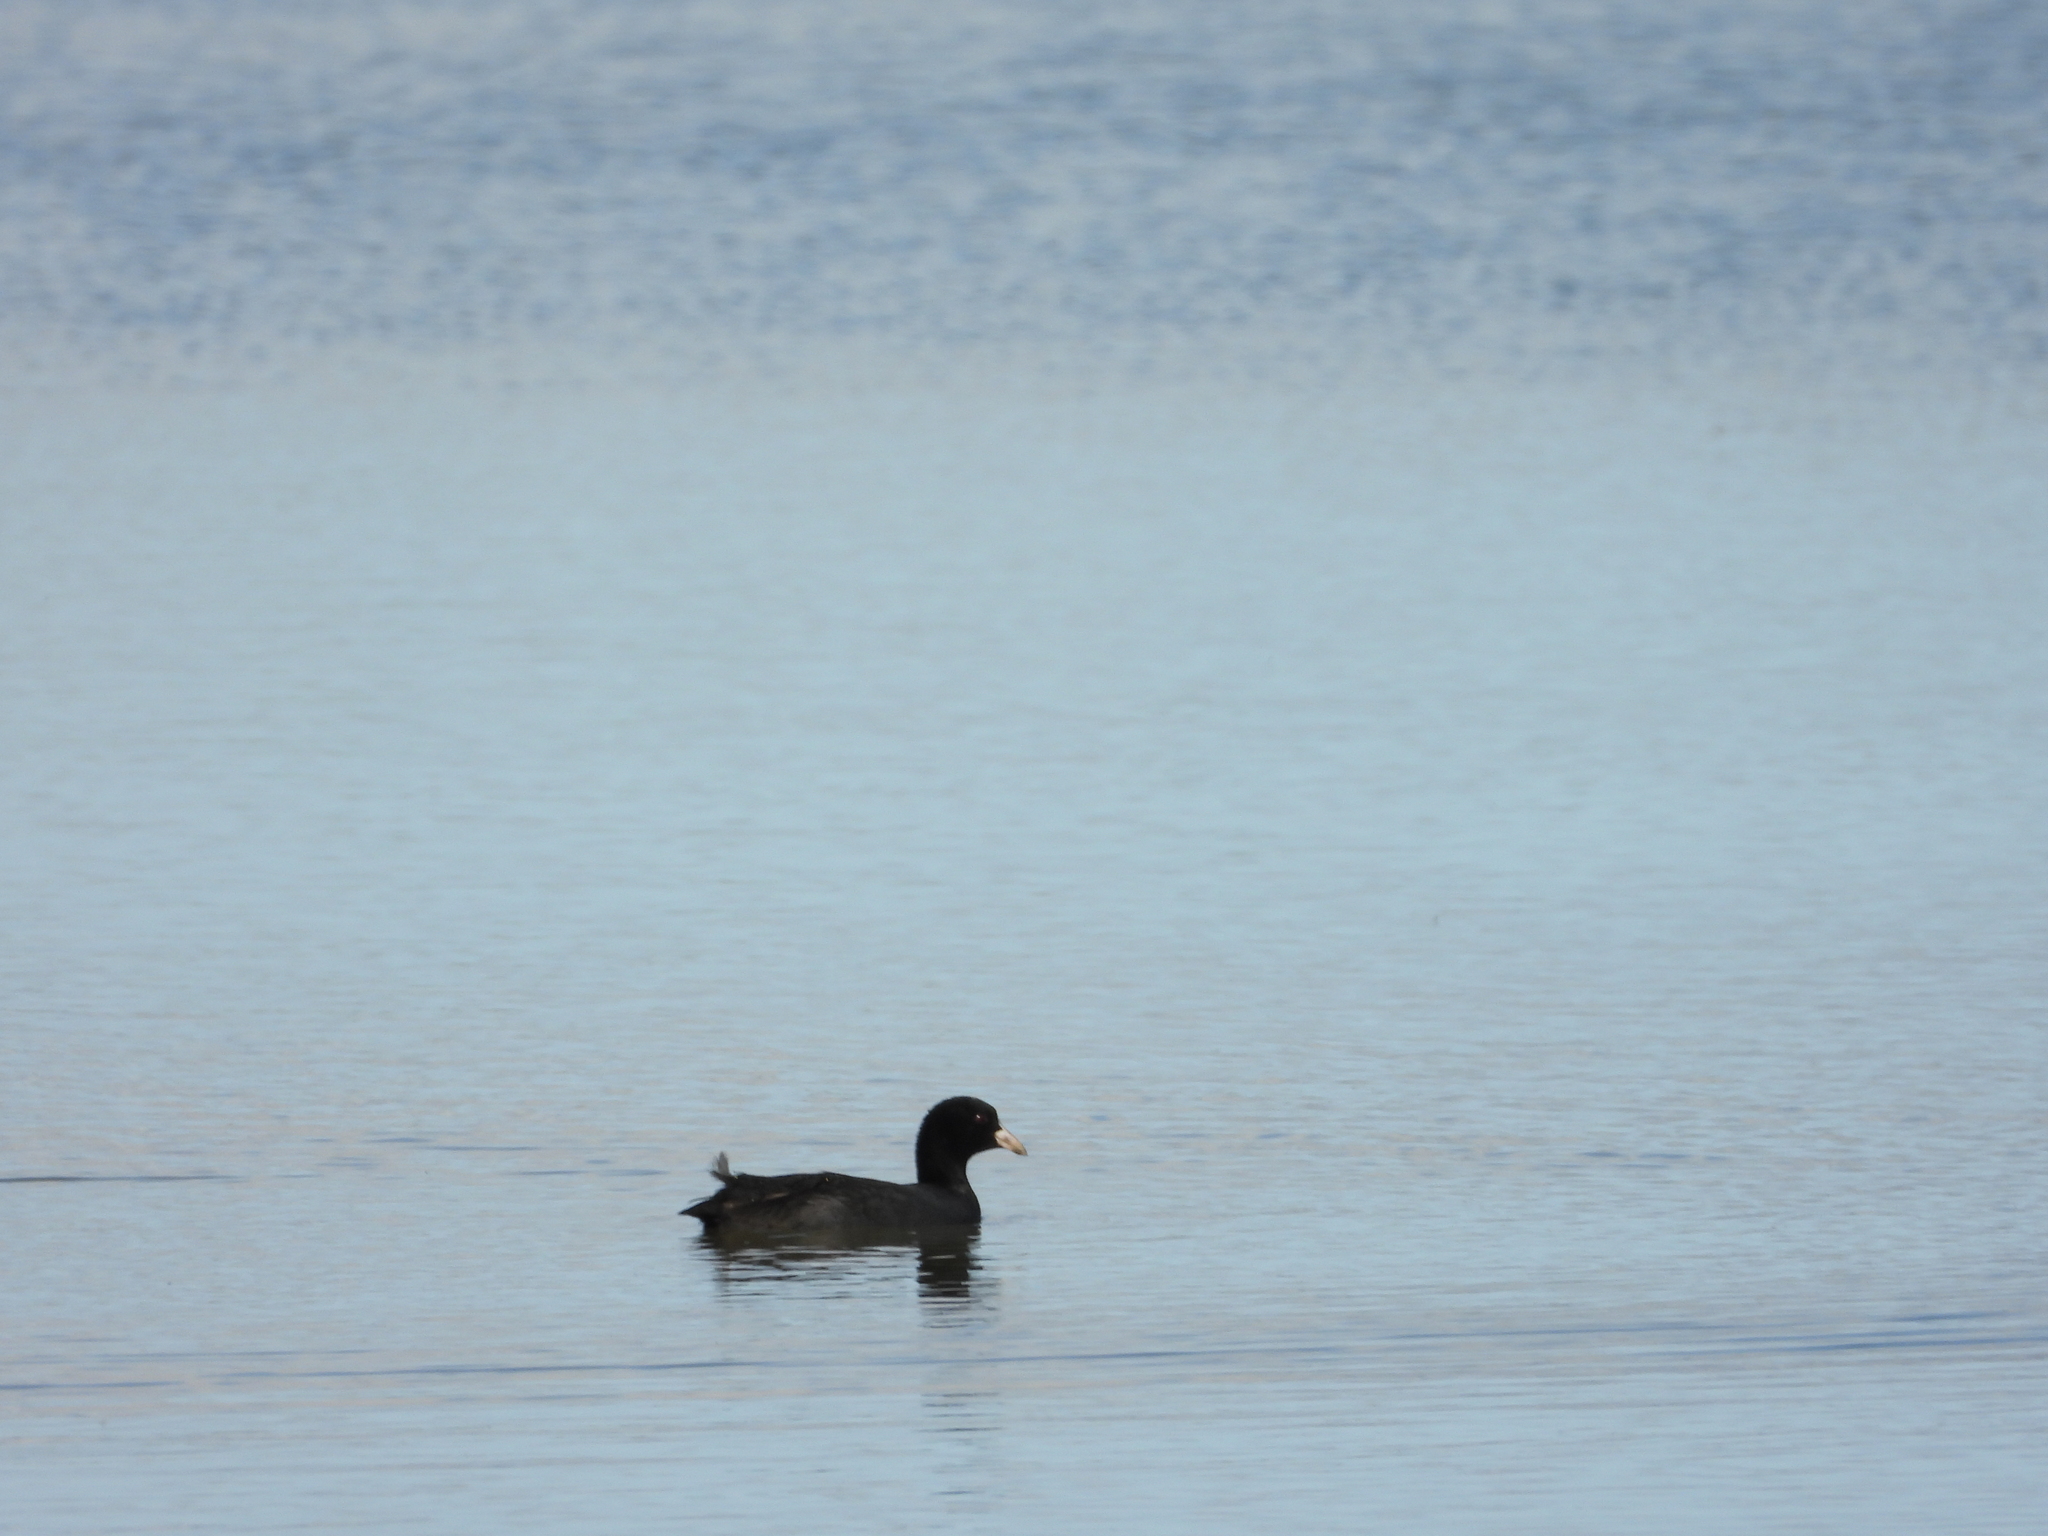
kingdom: Animalia
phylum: Chordata
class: Aves
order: Gruiformes
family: Rallidae
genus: Fulica
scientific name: Fulica atra
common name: Eurasian coot
